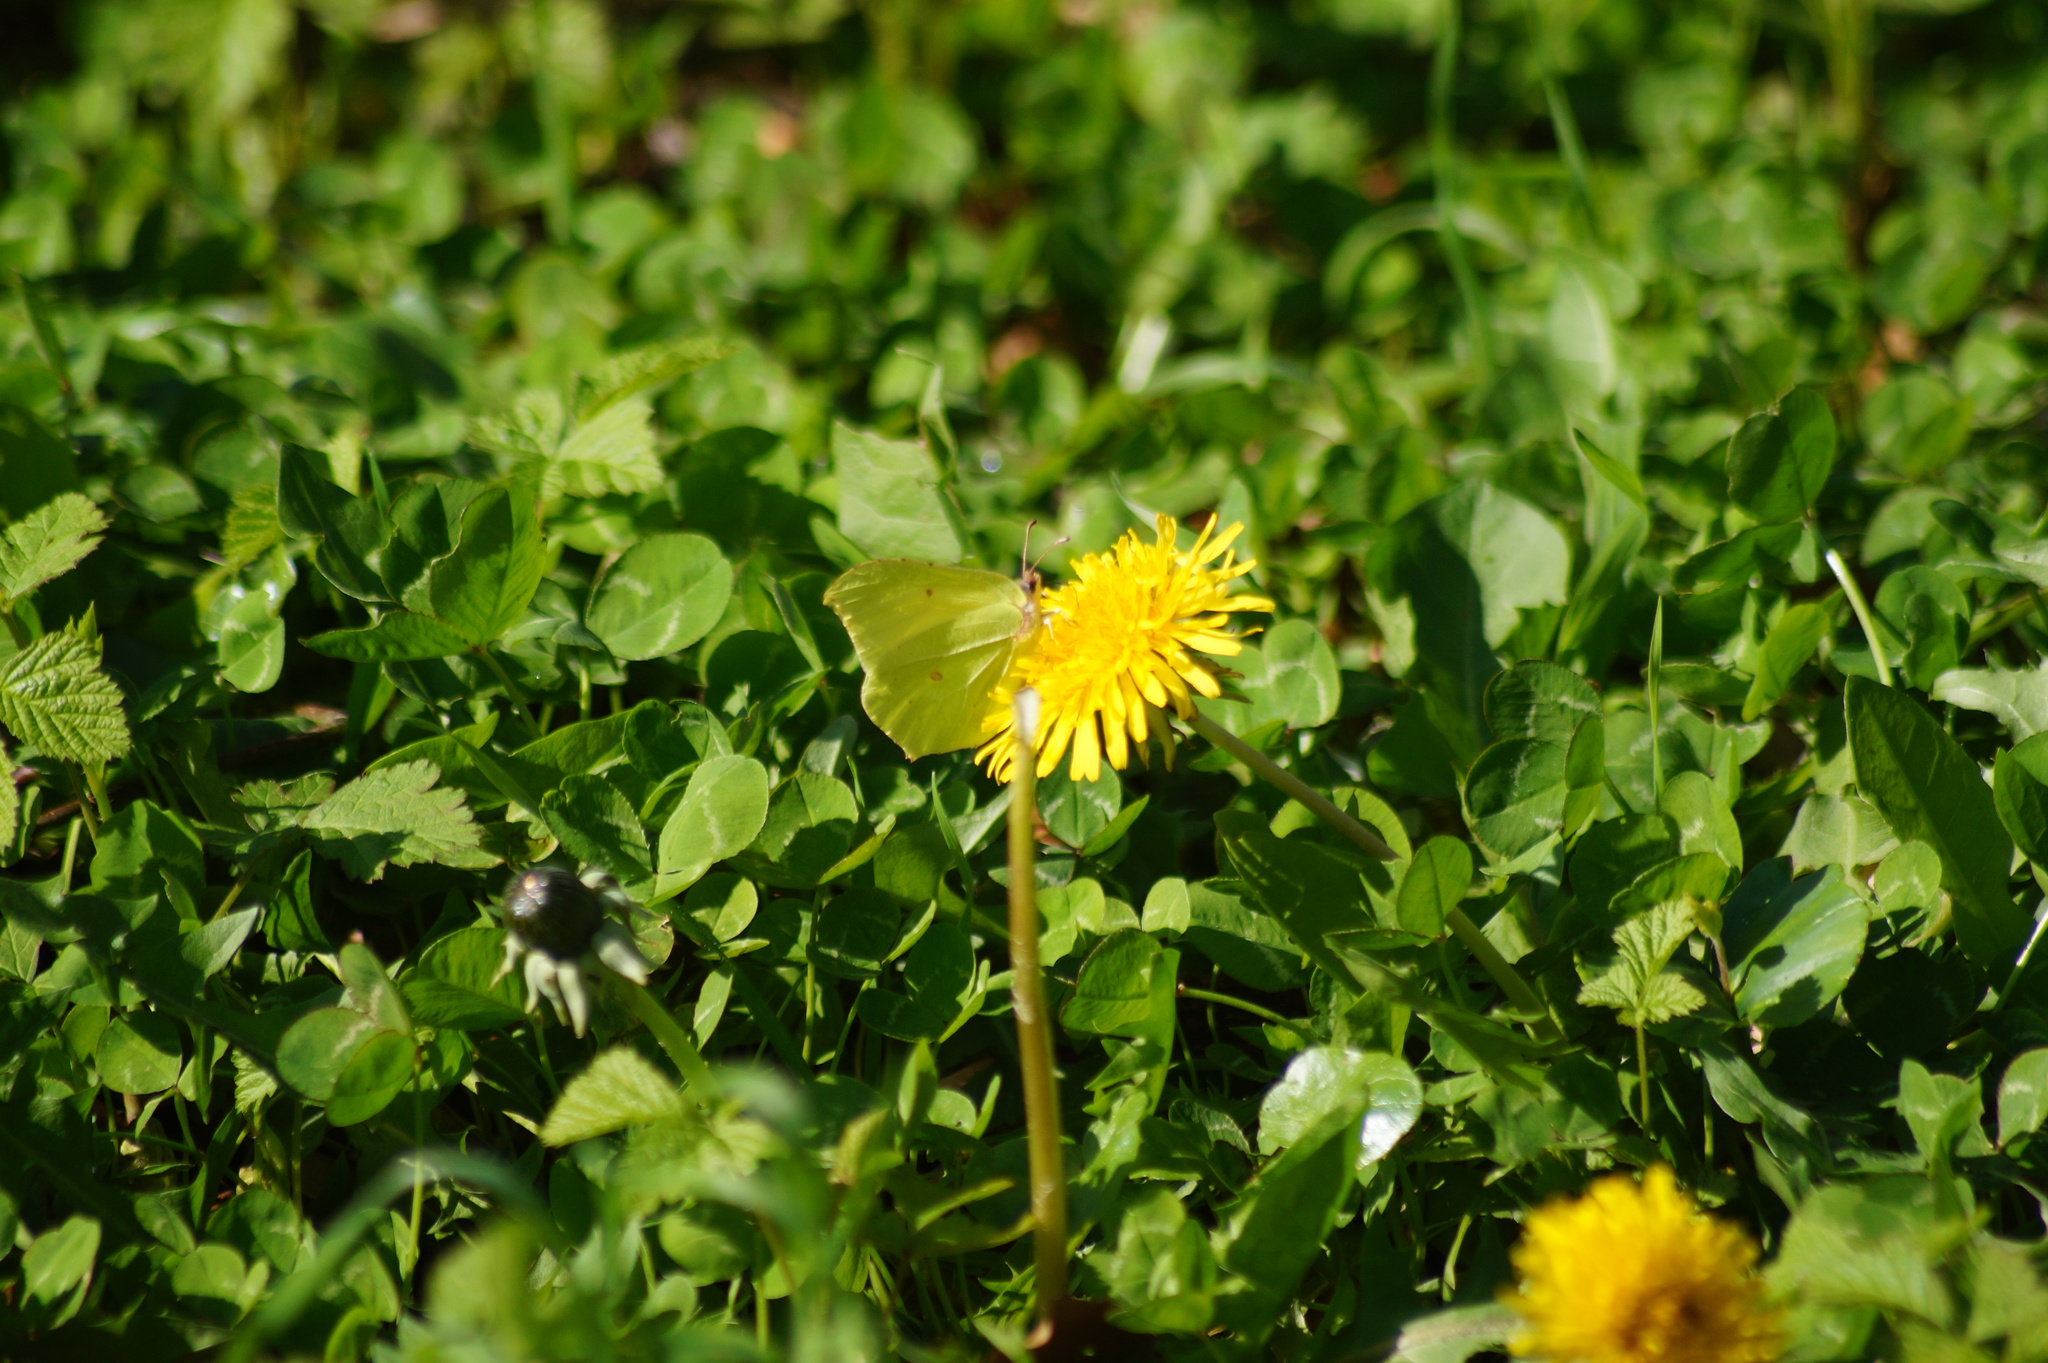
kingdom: Animalia
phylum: Arthropoda
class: Insecta
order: Lepidoptera
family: Pieridae
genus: Gonepteryx
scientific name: Gonepteryx rhamni
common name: Brimstone
